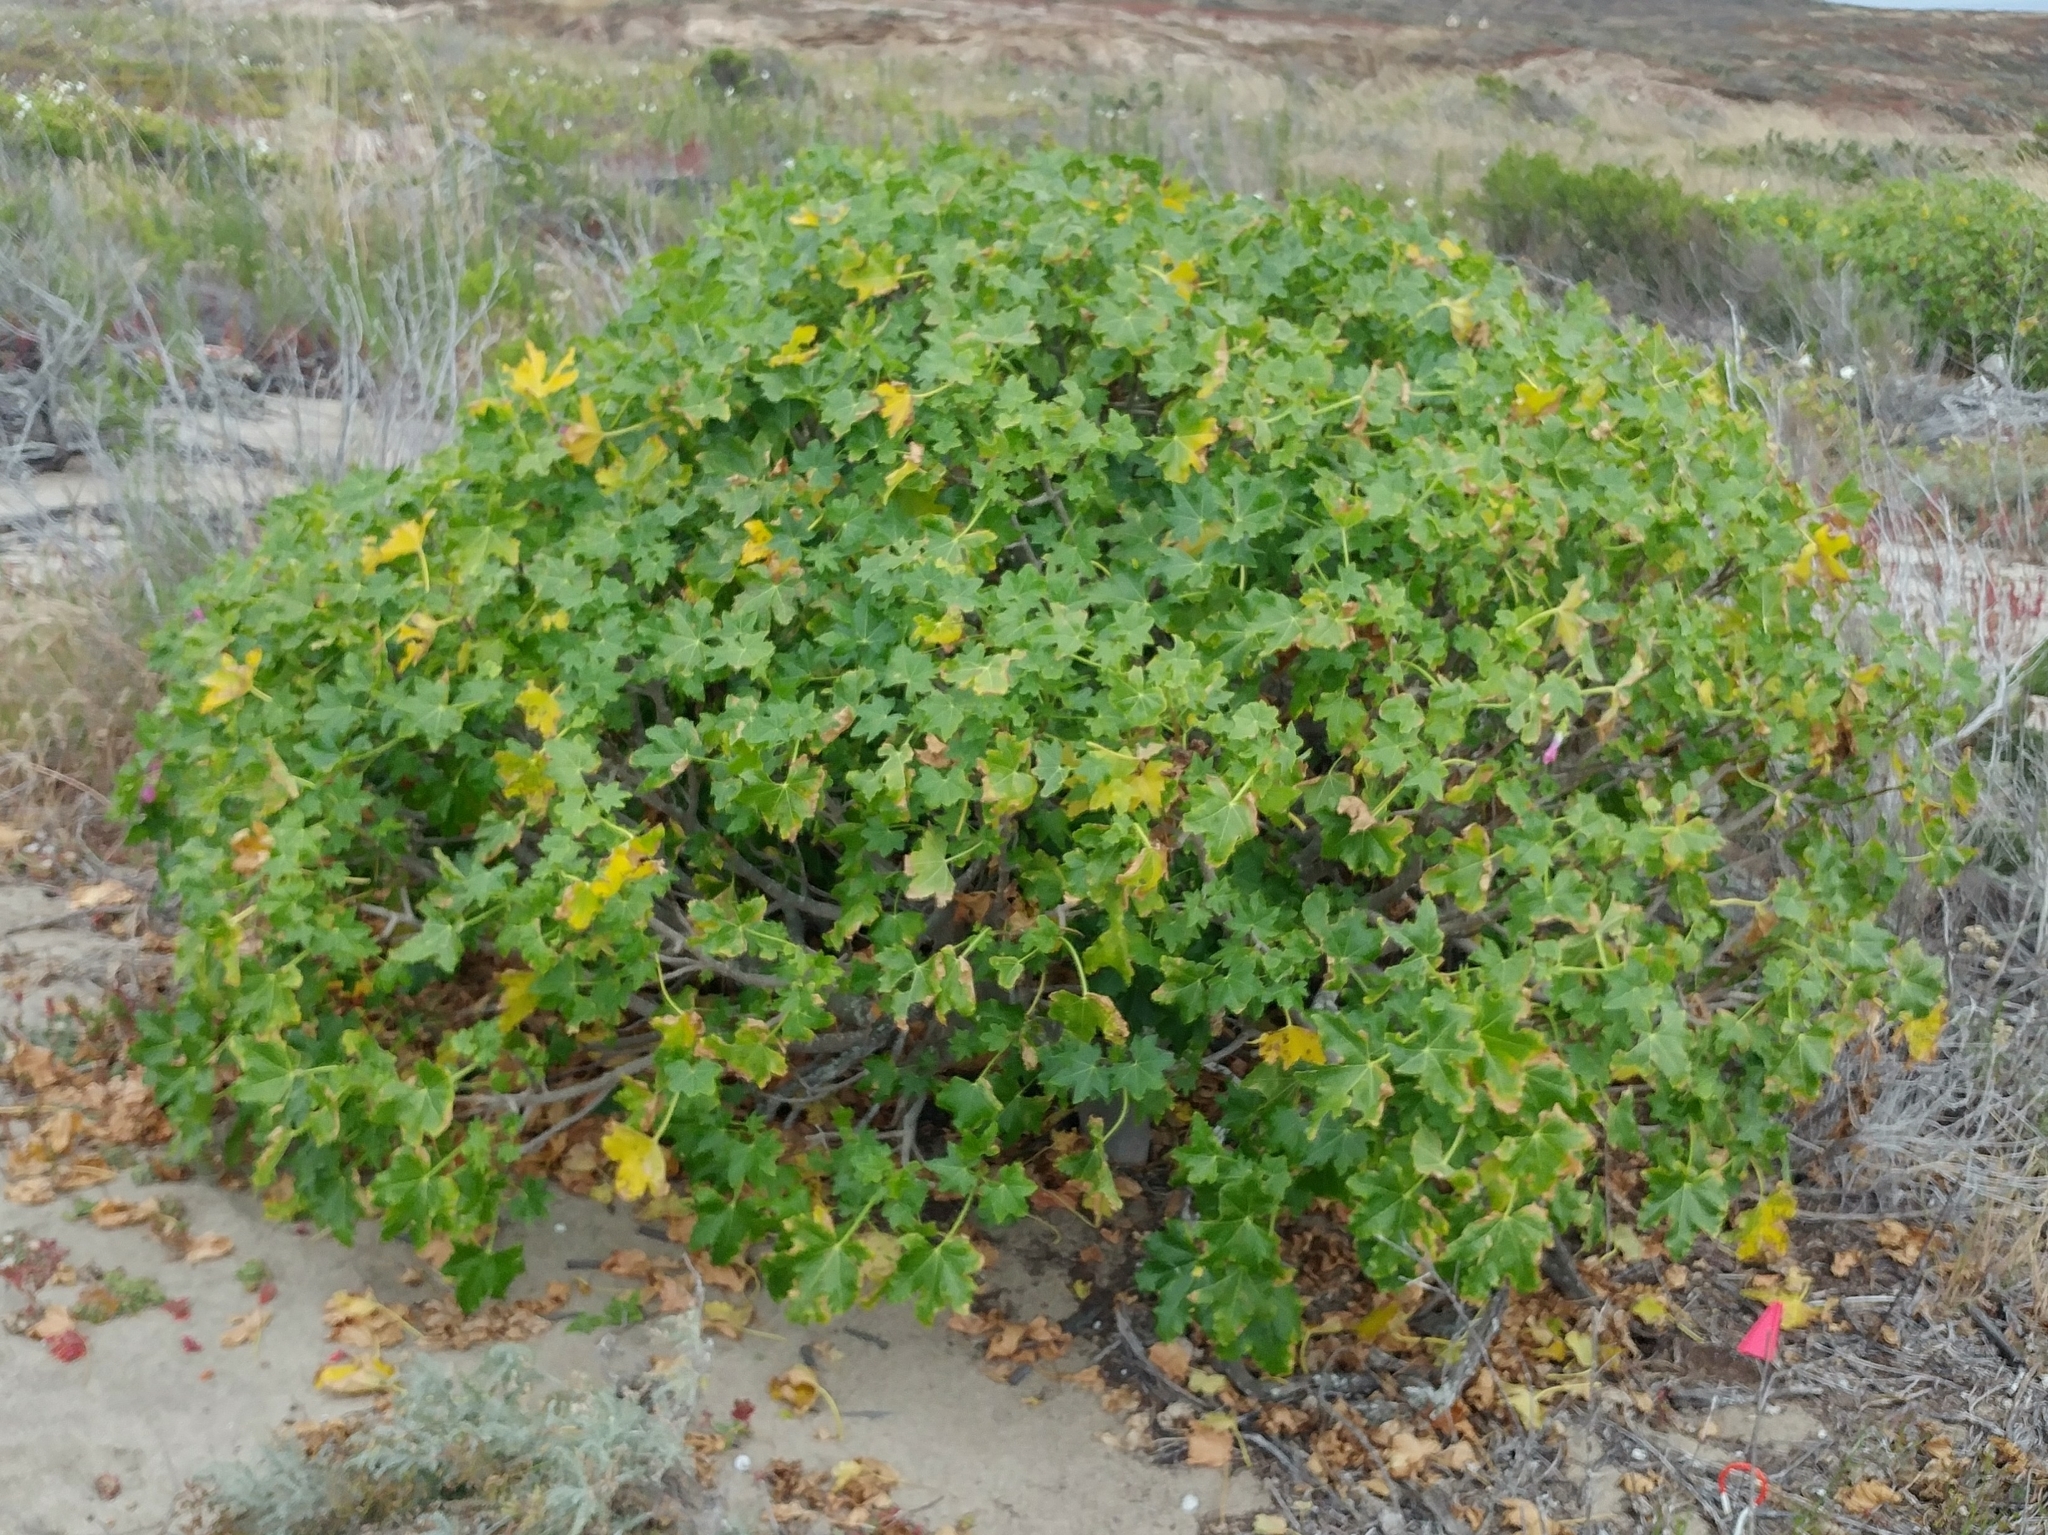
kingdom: Plantae
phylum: Tracheophyta
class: Magnoliopsida
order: Malvales
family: Malvaceae
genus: Malva
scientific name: Malva assurgentiflora
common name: Island mallow
